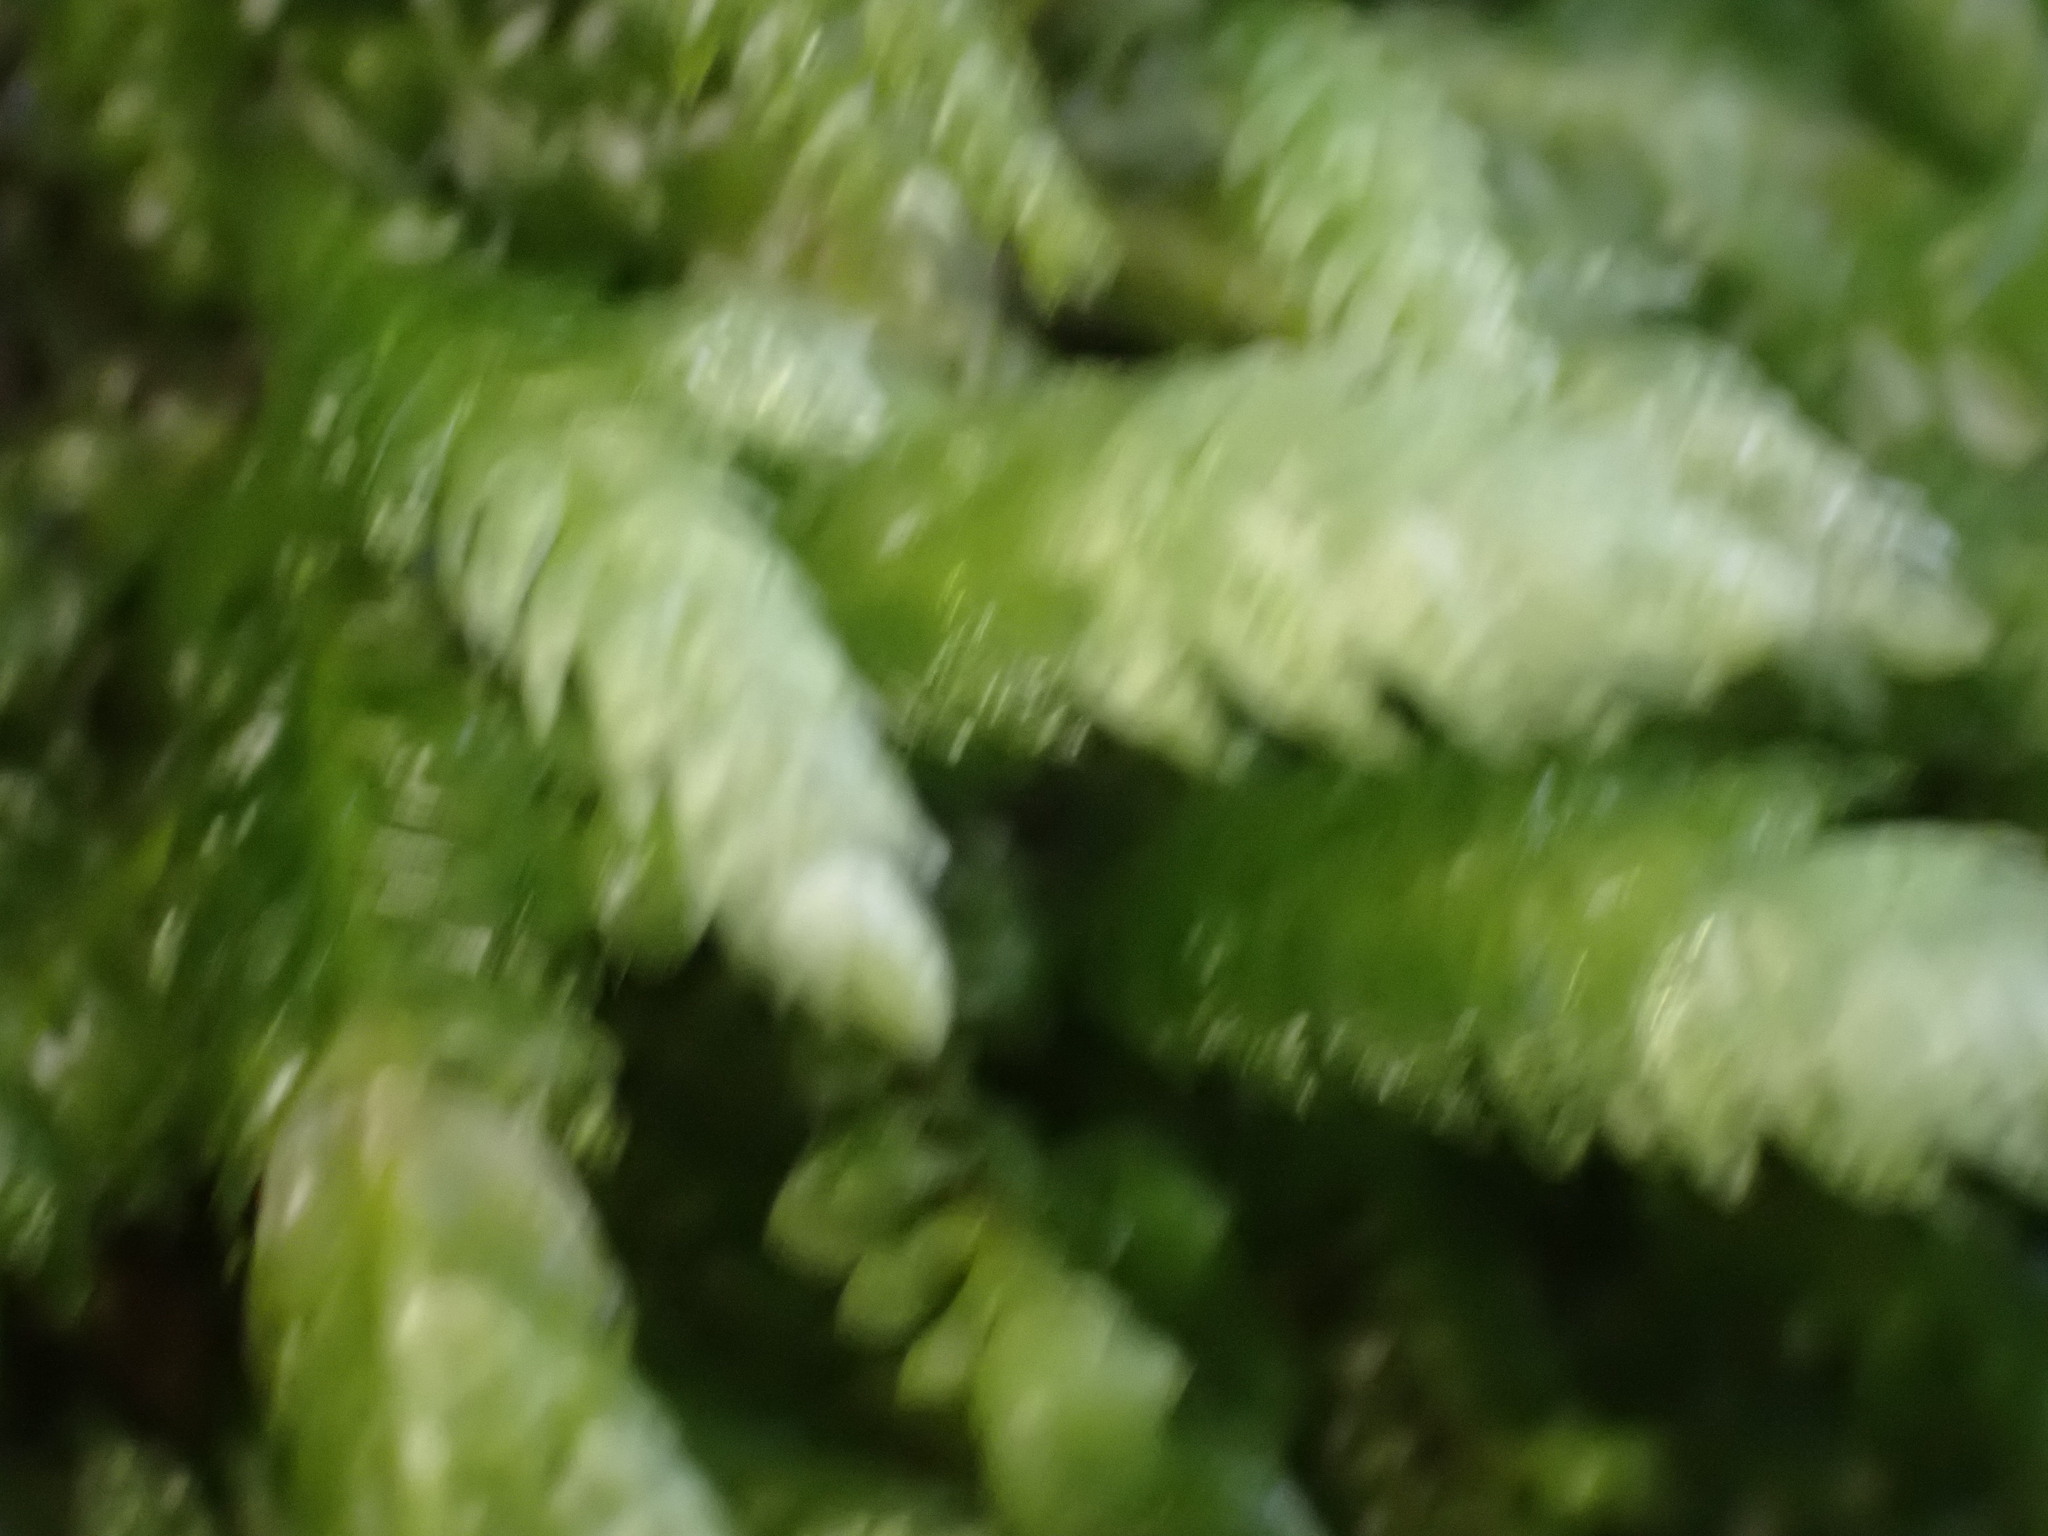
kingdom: Plantae
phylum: Bryophyta
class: Bryopsida
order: Hypnales
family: Plagiotheciaceae
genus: Plagiothecium
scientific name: Plagiothecium undulatum
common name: Waved silk-moss
